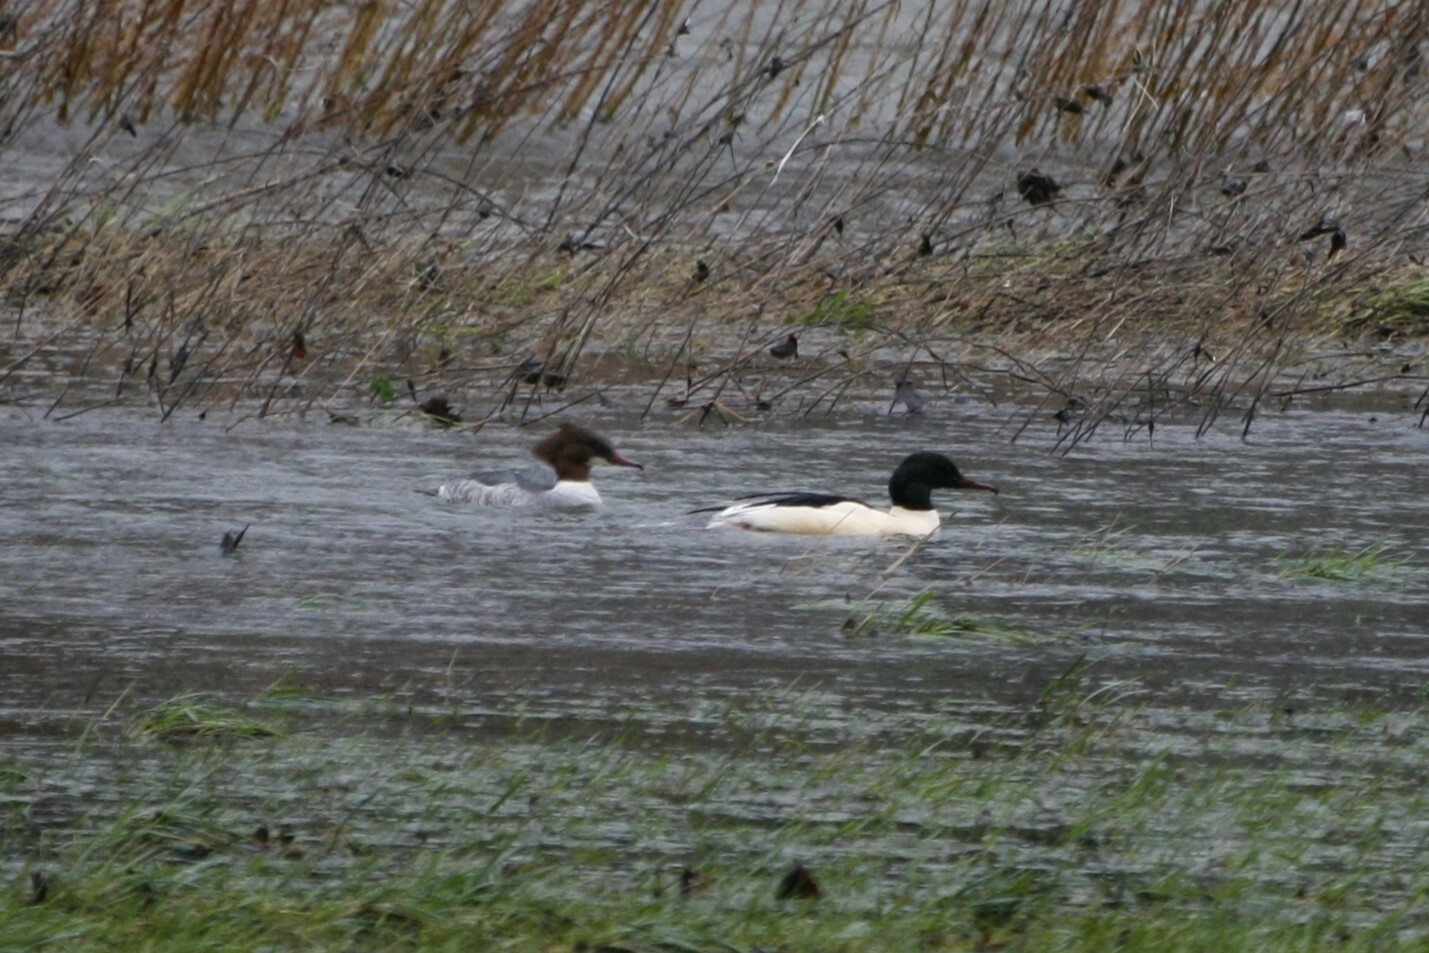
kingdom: Animalia
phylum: Chordata
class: Aves
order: Anseriformes
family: Anatidae
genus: Mergus
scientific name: Mergus merganser
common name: Common merganser
